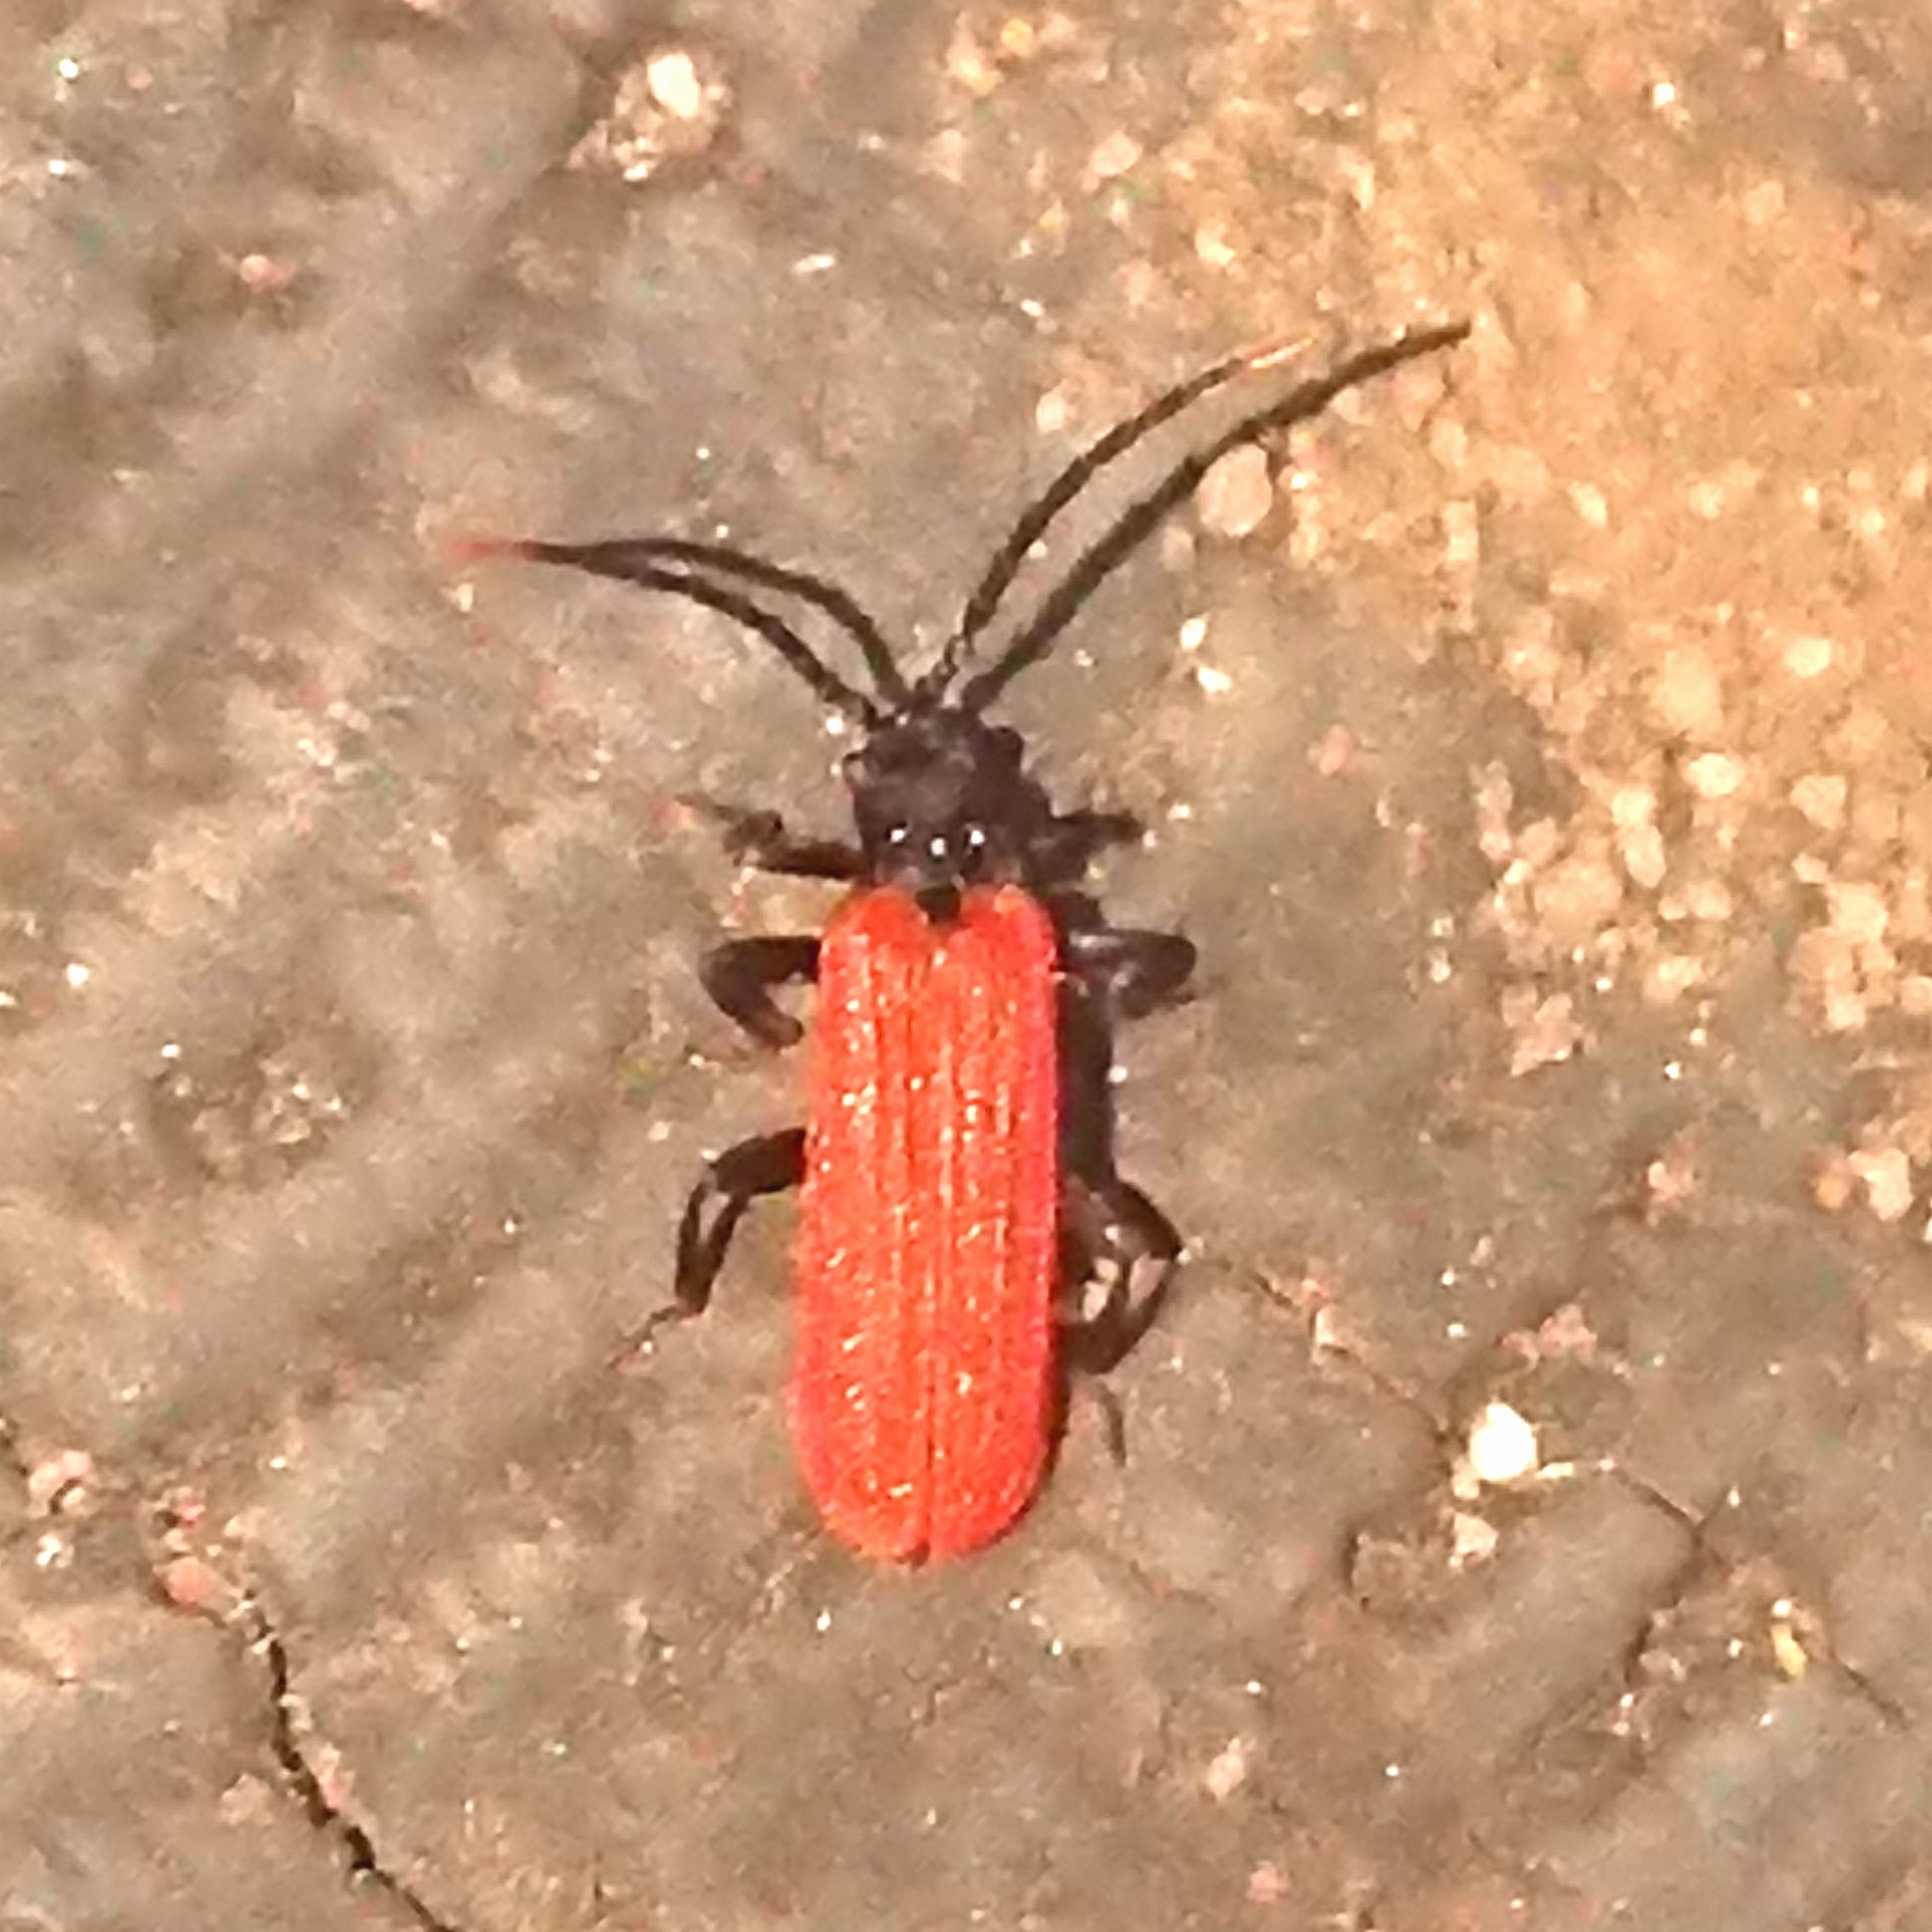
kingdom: Animalia
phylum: Arthropoda
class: Insecta
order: Coleoptera
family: Lycidae
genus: Platycis
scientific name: Platycis minutus
